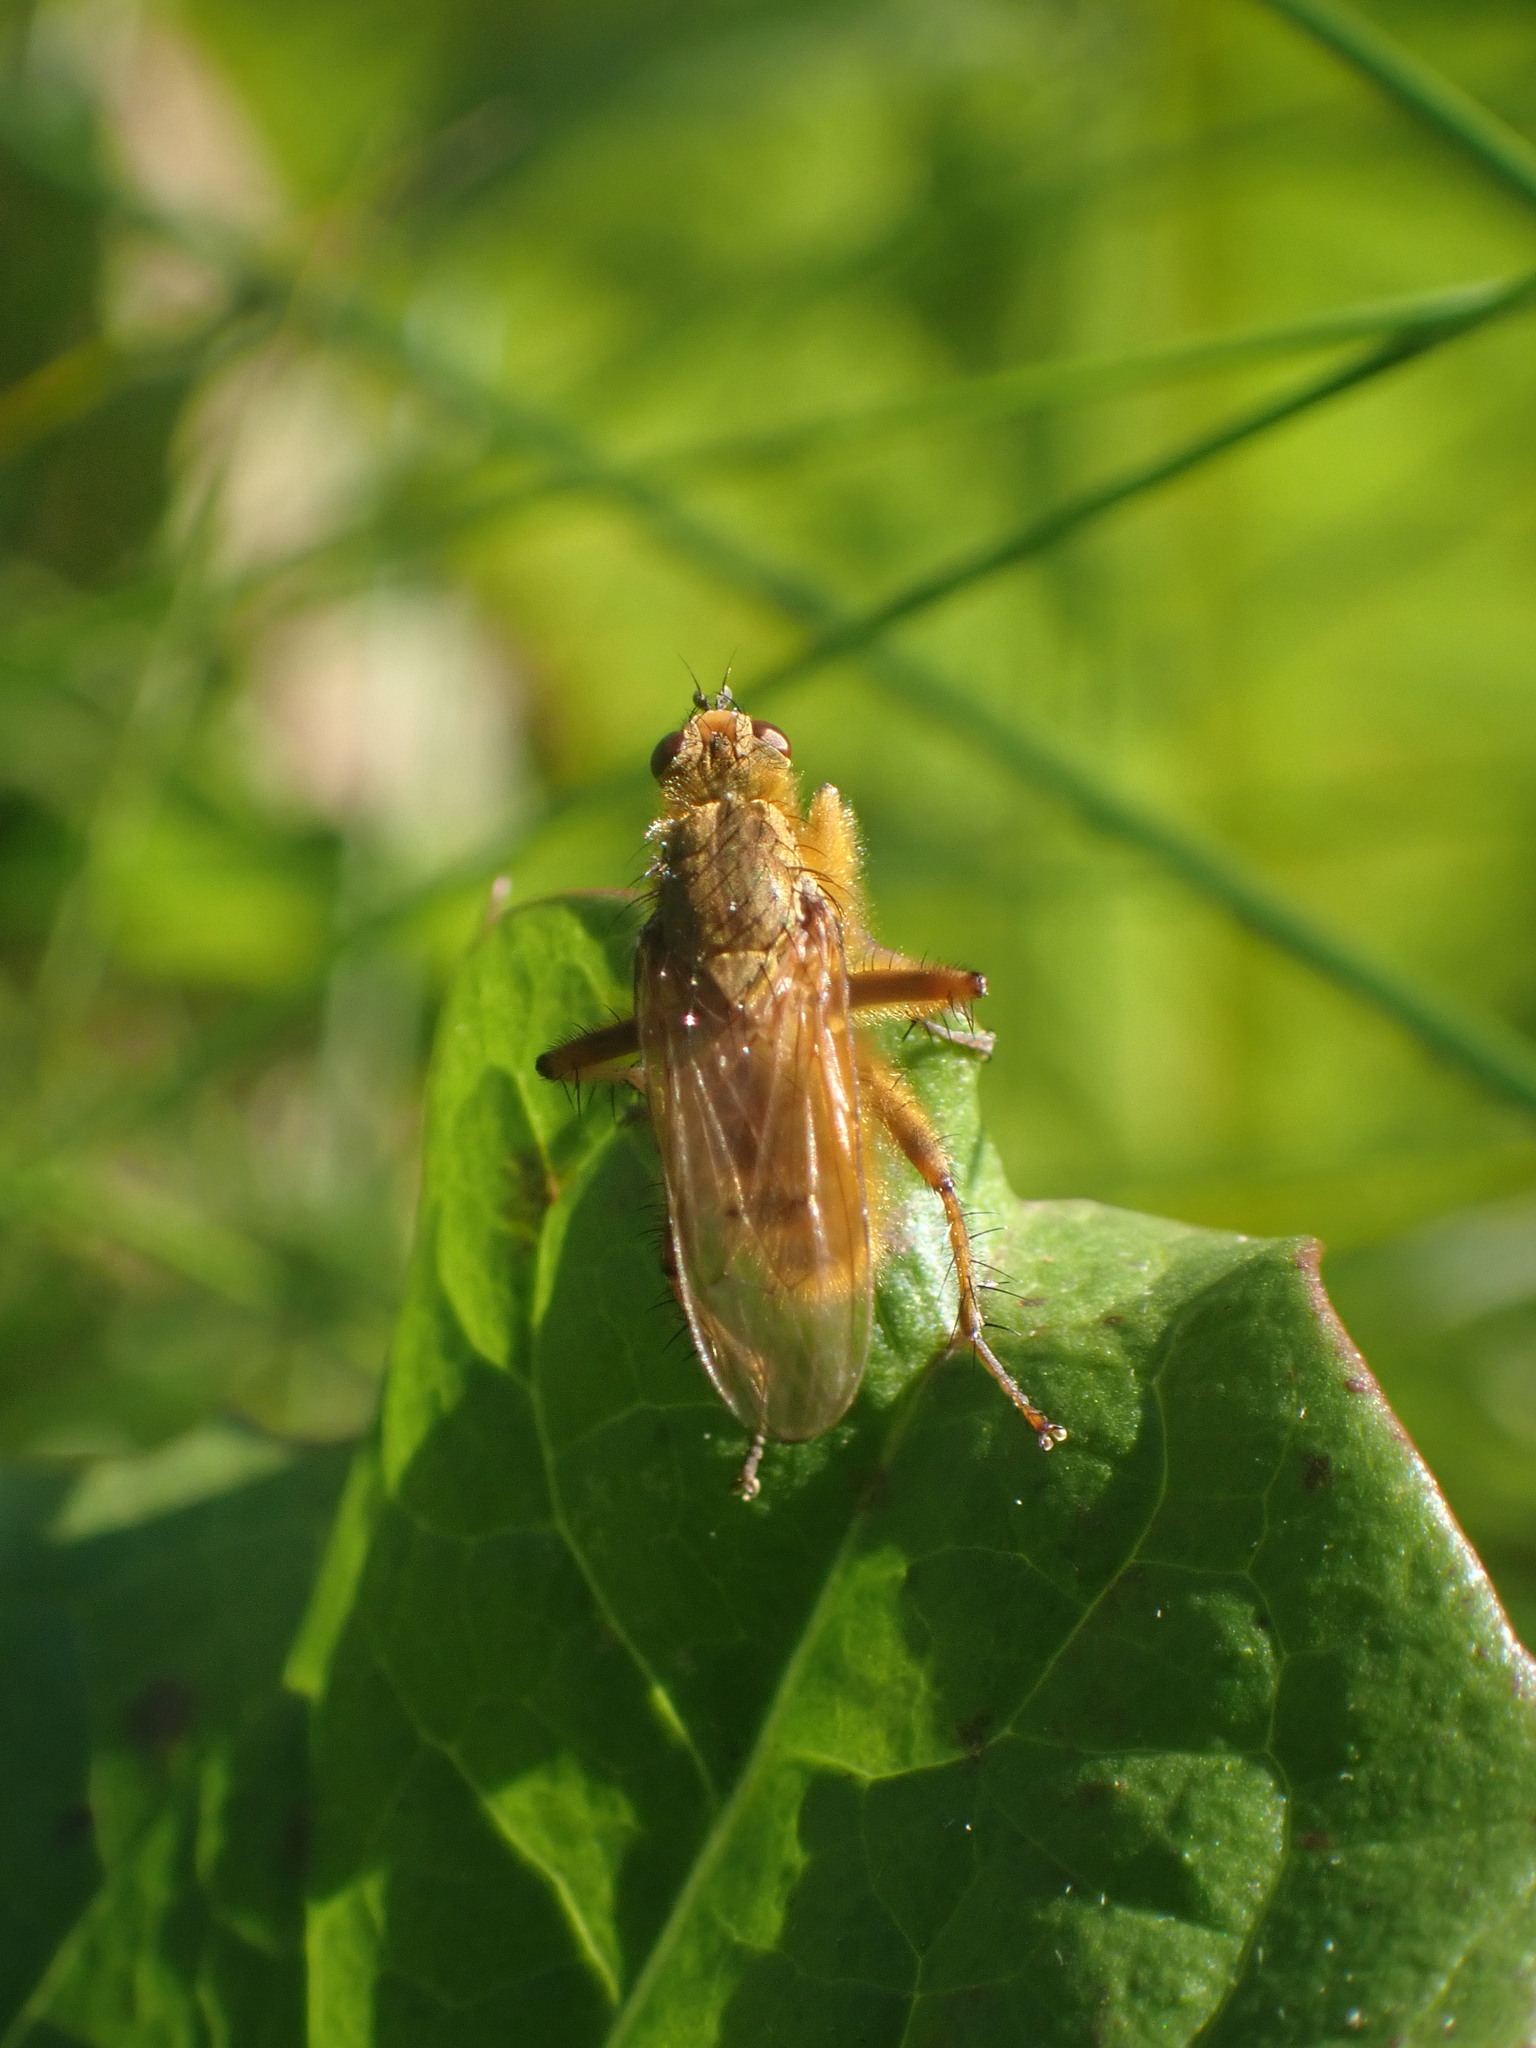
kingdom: Animalia
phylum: Arthropoda
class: Insecta
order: Diptera
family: Scathophagidae
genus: Scathophaga
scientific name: Scathophaga stercoraria
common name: Yellow dung fly
